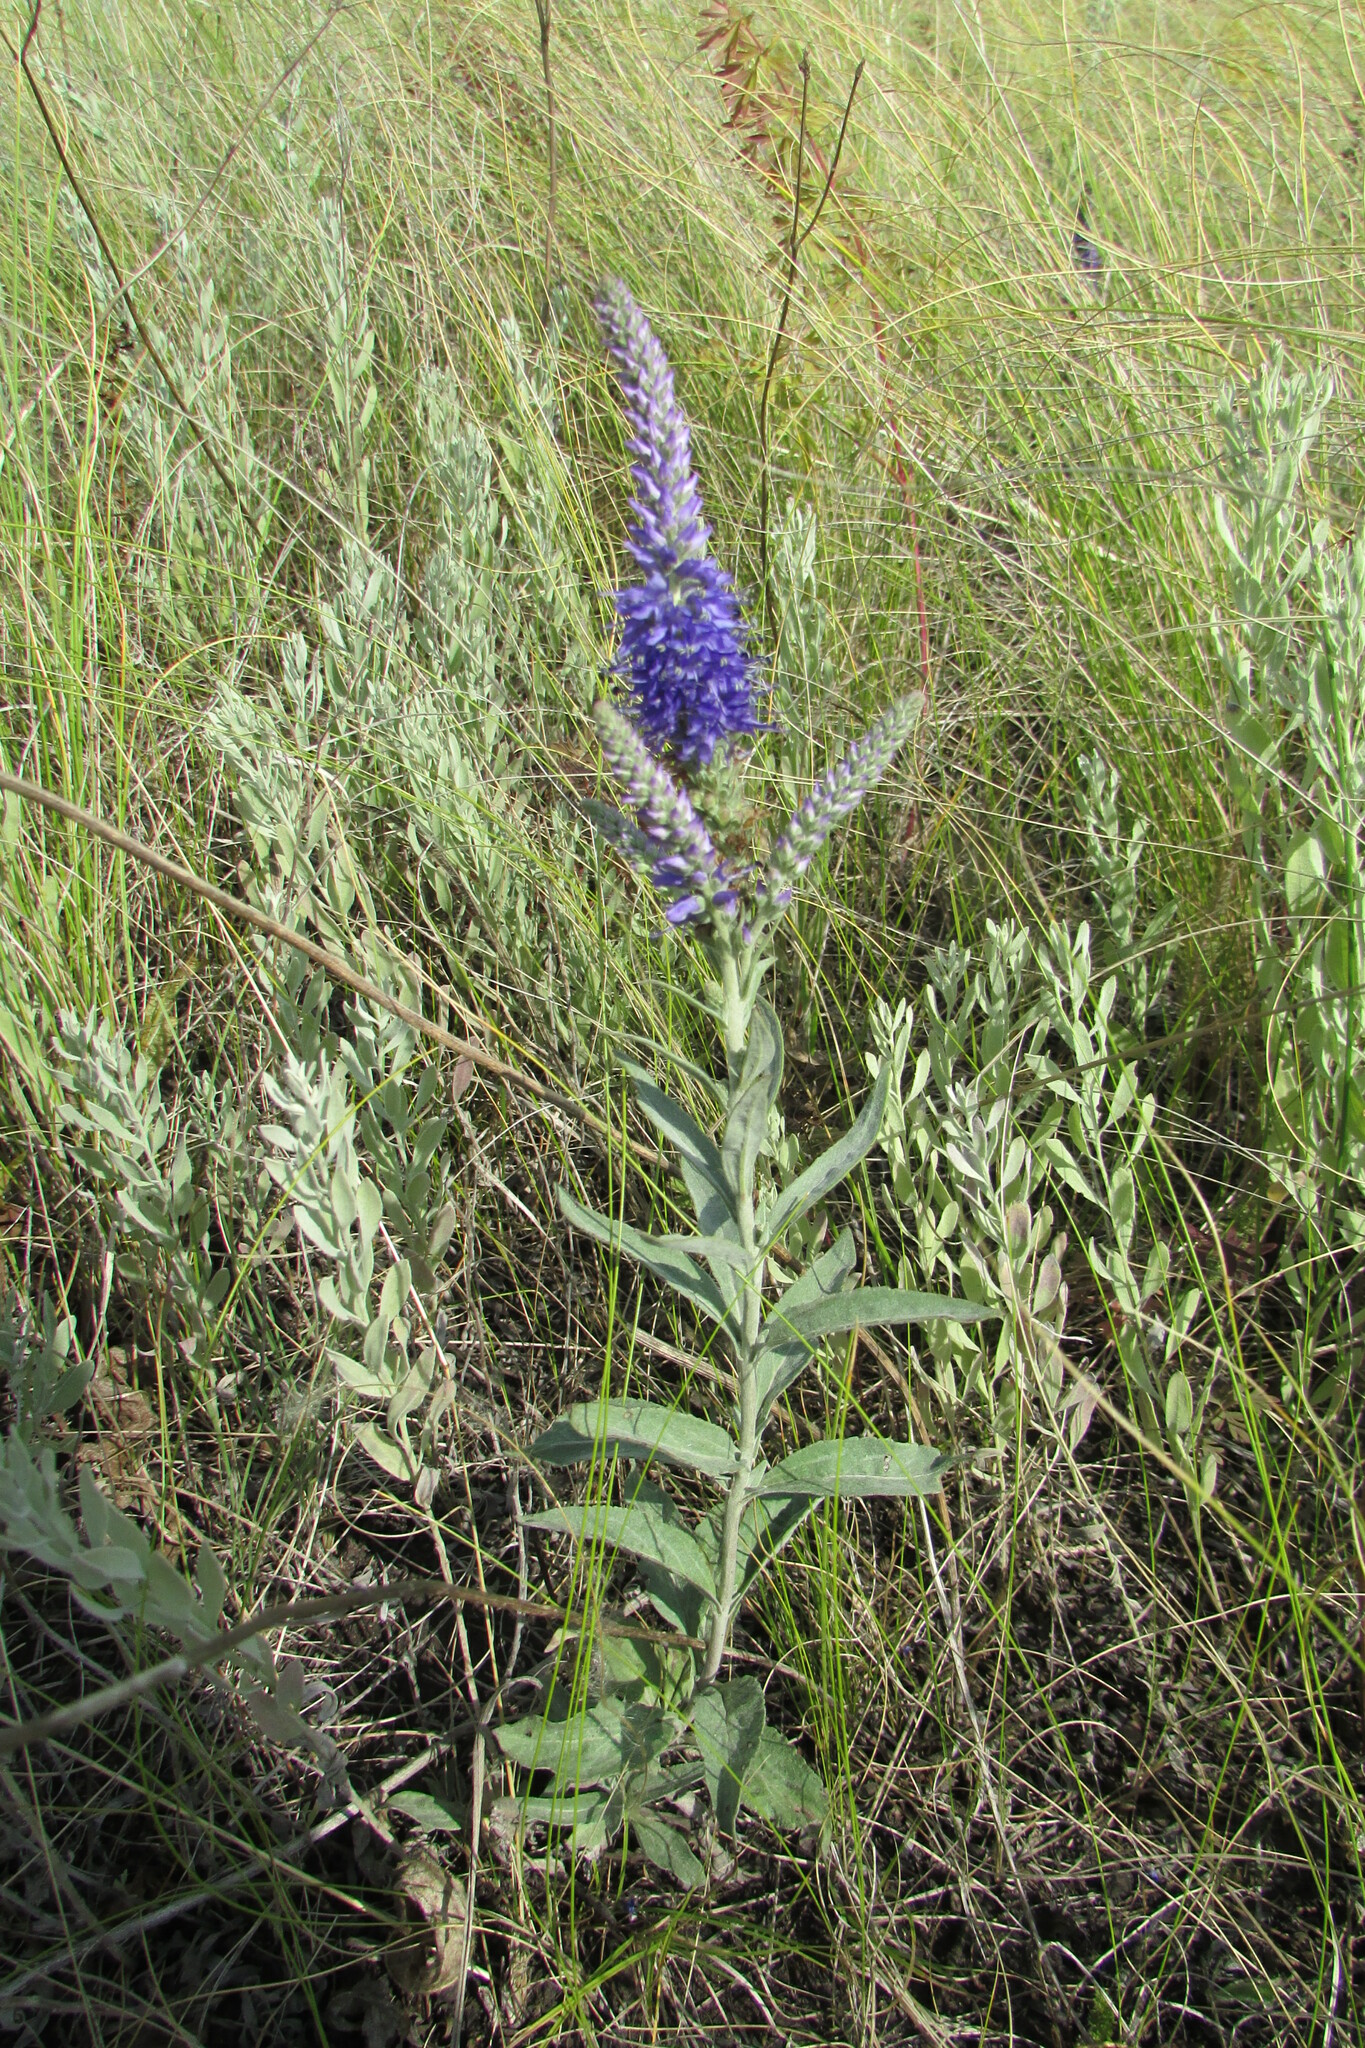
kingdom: Plantae
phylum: Tracheophyta
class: Magnoliopsida
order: Lamiales
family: Plantaginaceae
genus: Veronica
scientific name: Veronica incana
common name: Silver speedwell
